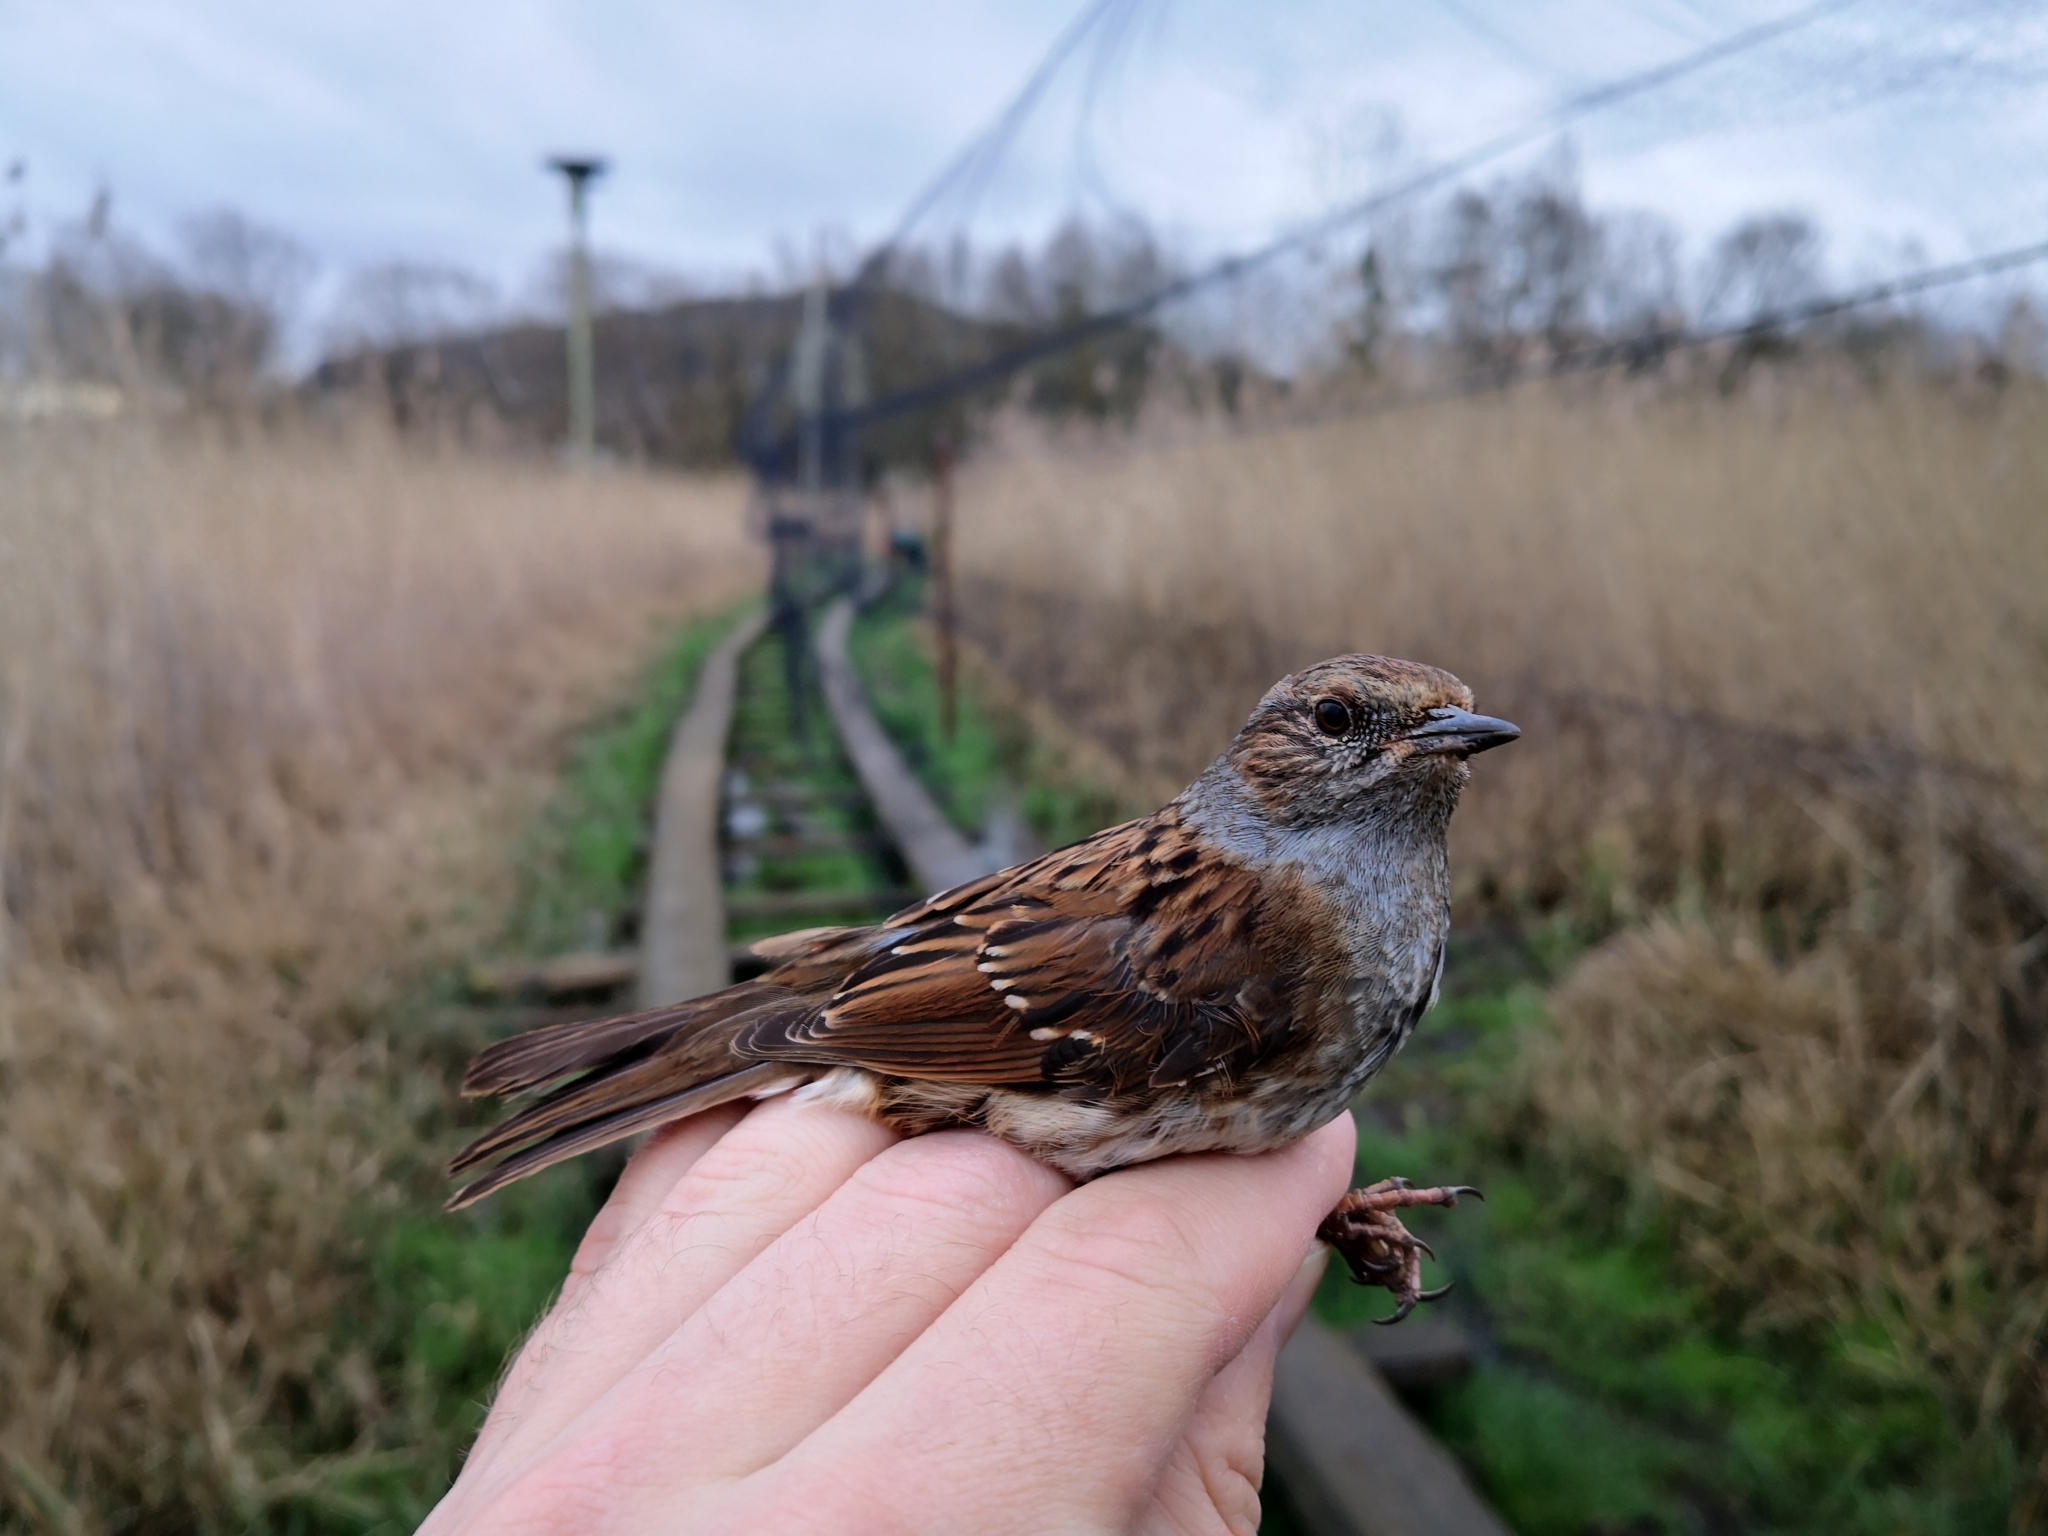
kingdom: Animalia
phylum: Chordata
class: Aves
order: Passeriformes
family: Prunellidae
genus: Prunella
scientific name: Prunella modularis
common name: Dunnock
